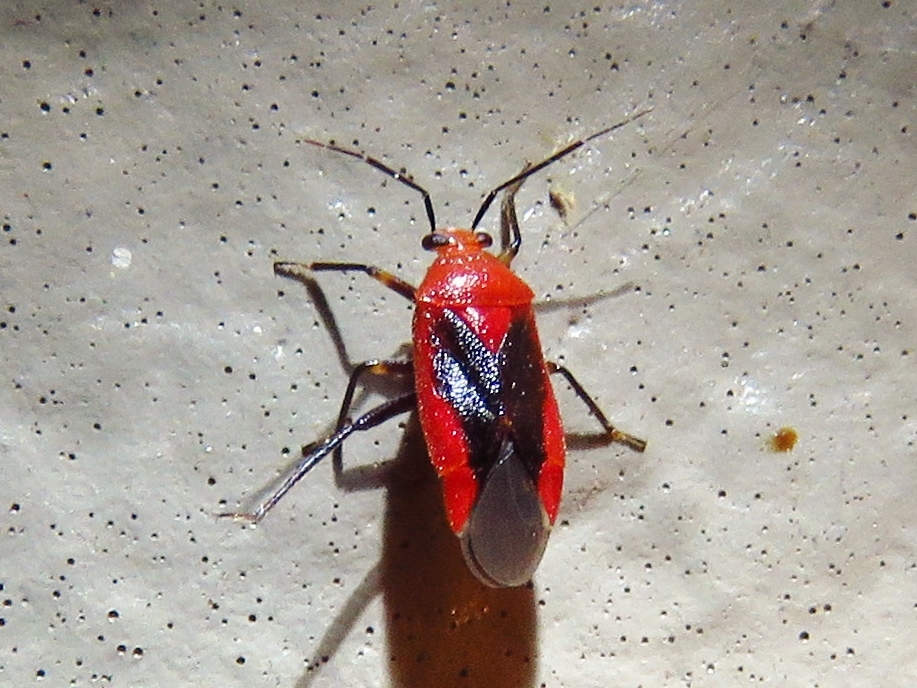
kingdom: Animalia
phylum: Arthropoda
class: Insecta
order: Hemiptera
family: Miridae
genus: Tropidosteptes
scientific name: Tropidosteptes cardinalis
